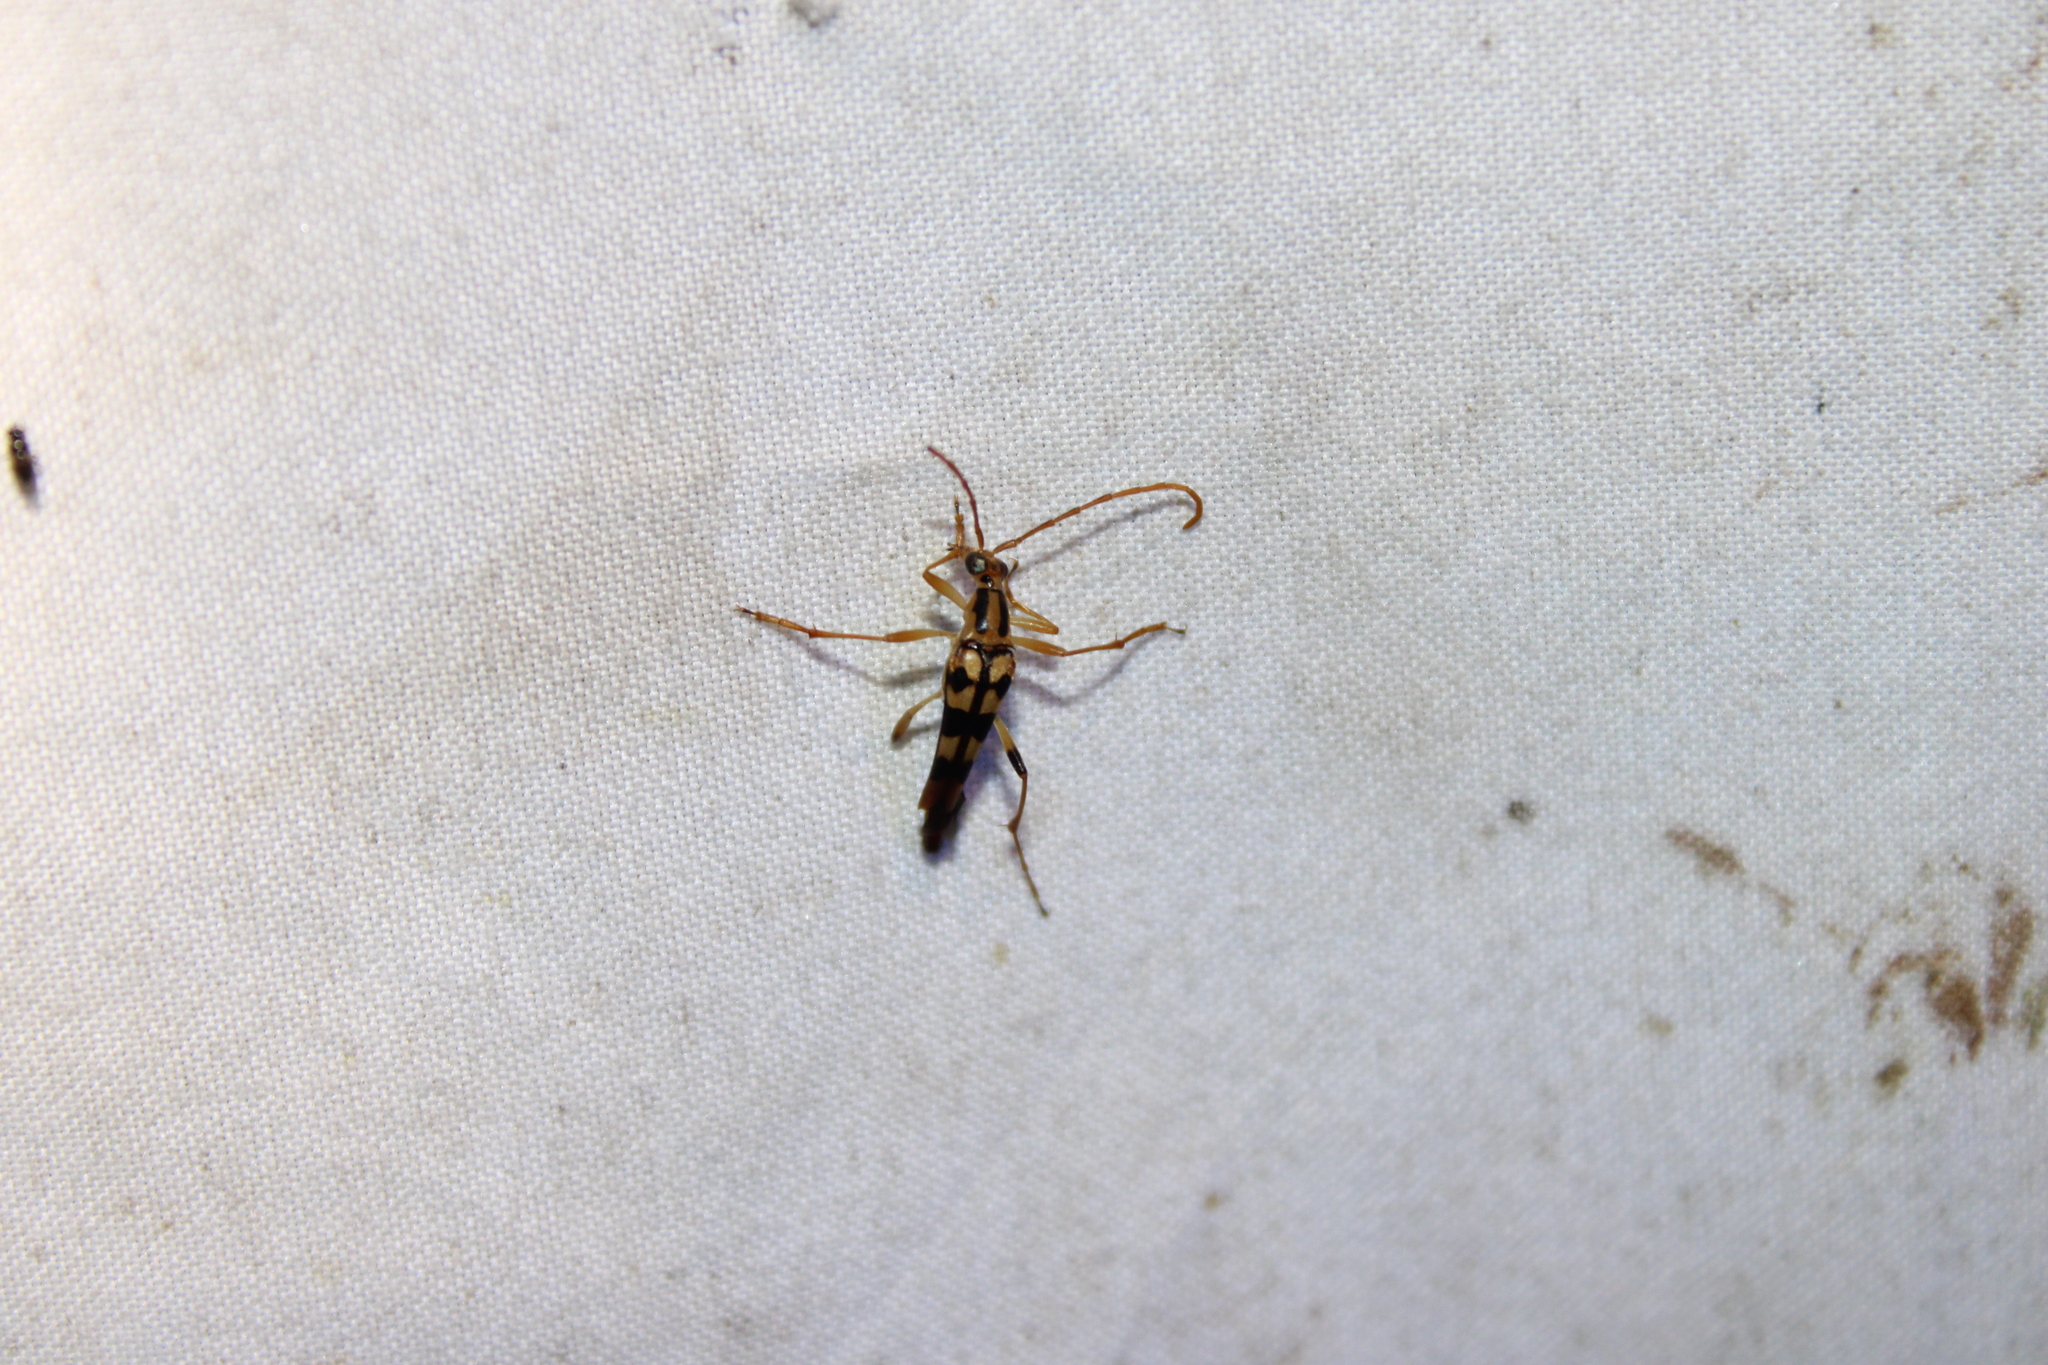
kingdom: Animalia
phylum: Arthropoda
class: Insecta
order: Coleoptera
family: Cerambycidae
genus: Strangalia
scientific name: Strangalia luteicornis
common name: Yellow-horned flower longhorn beetle
